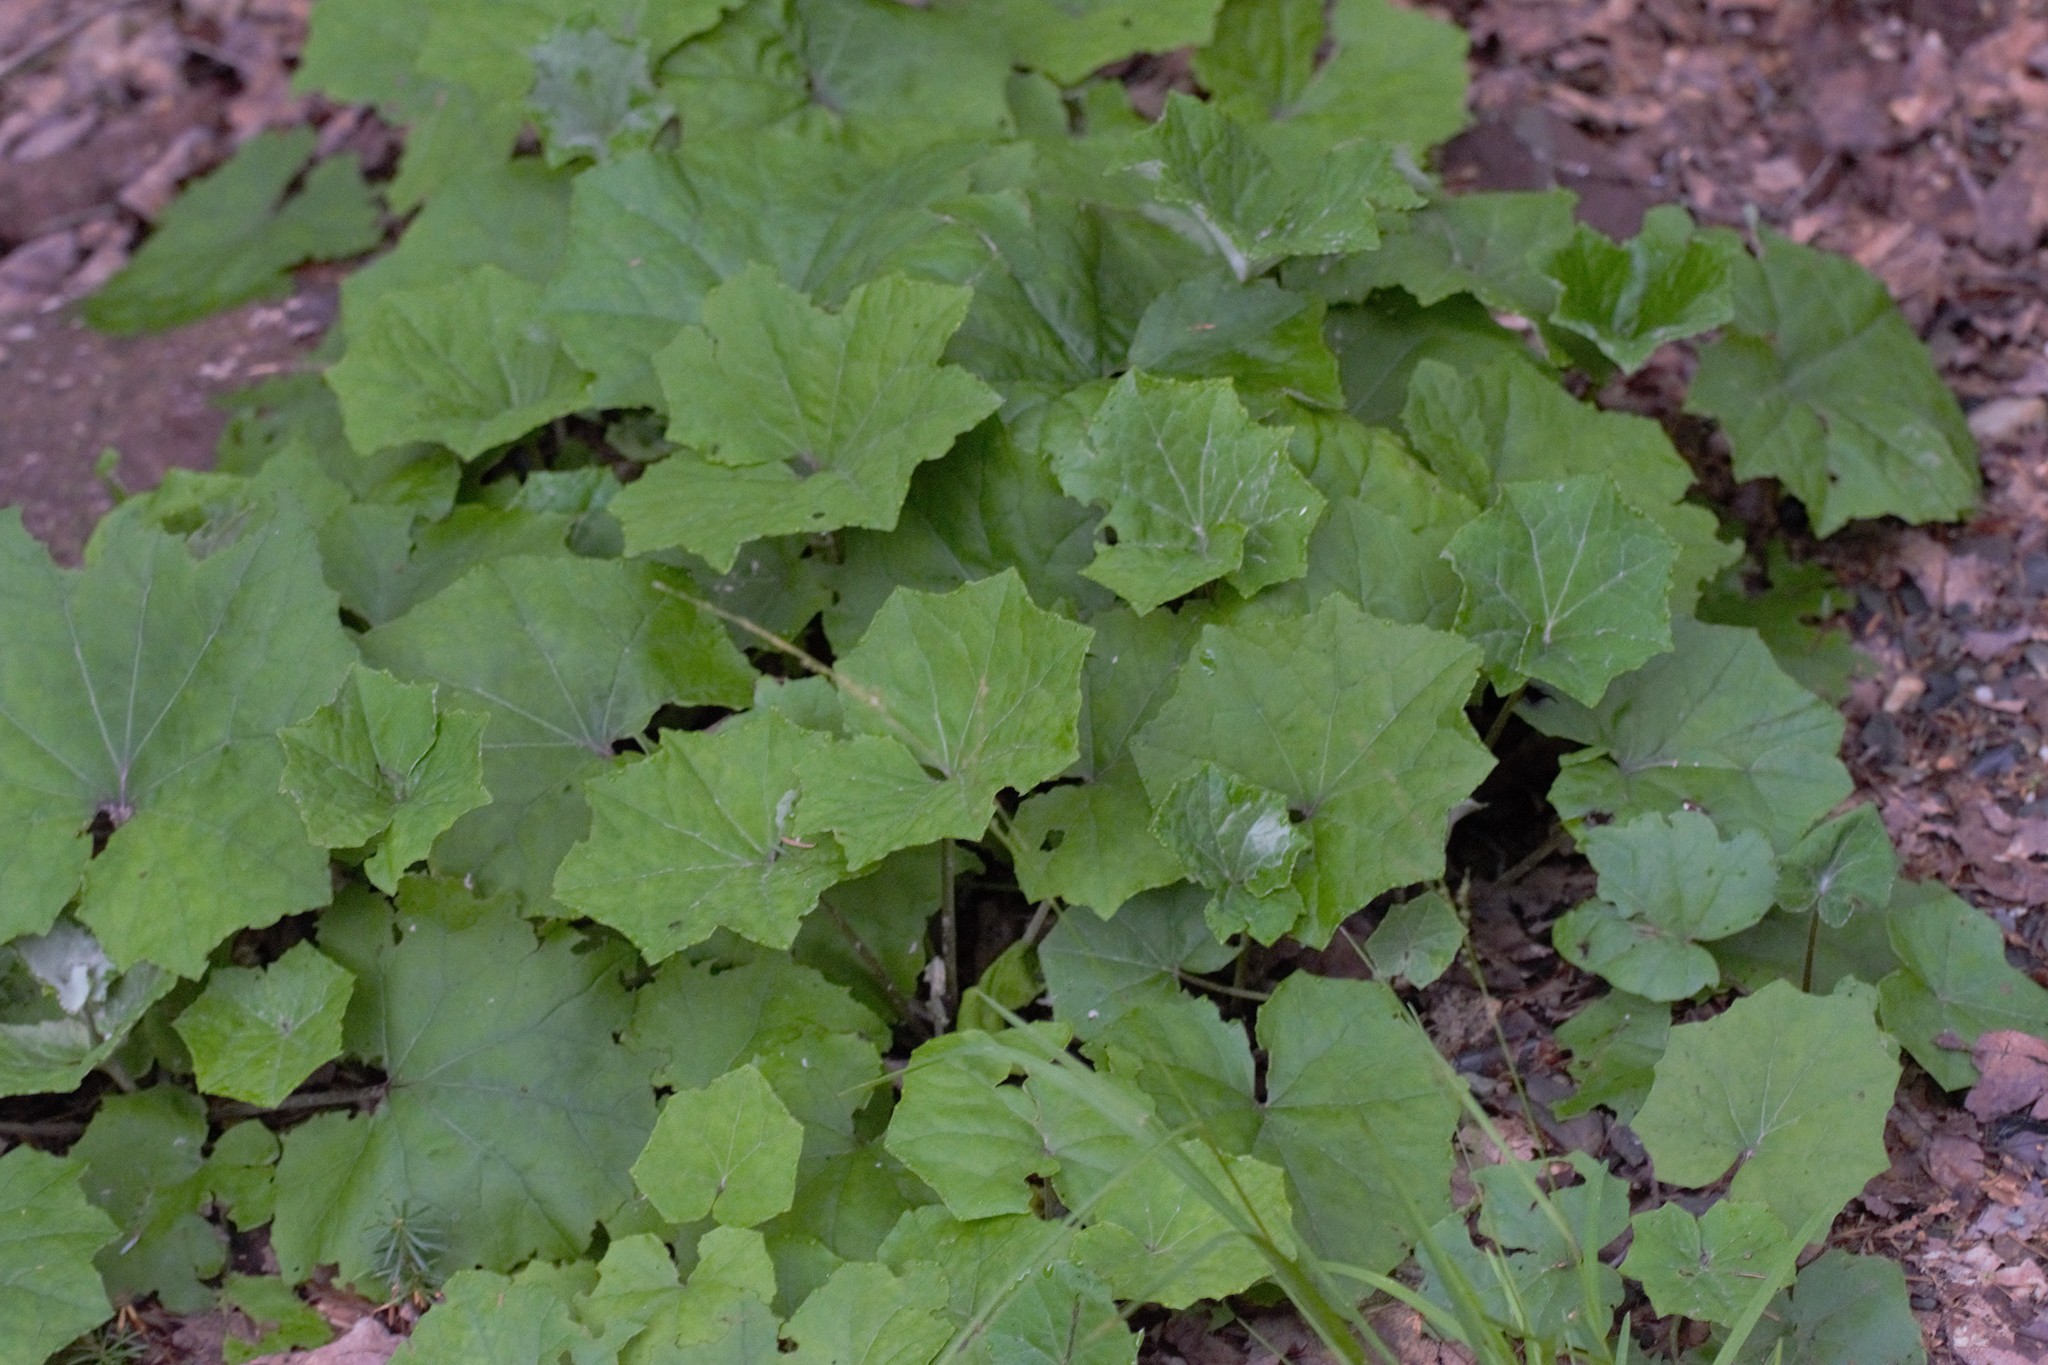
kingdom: Plantae
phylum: Tracheophyta
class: Magnoliopsida
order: Asterales
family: Asteraceae
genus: Tussilago
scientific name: Tussilago farfara
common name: Coltsfoot
